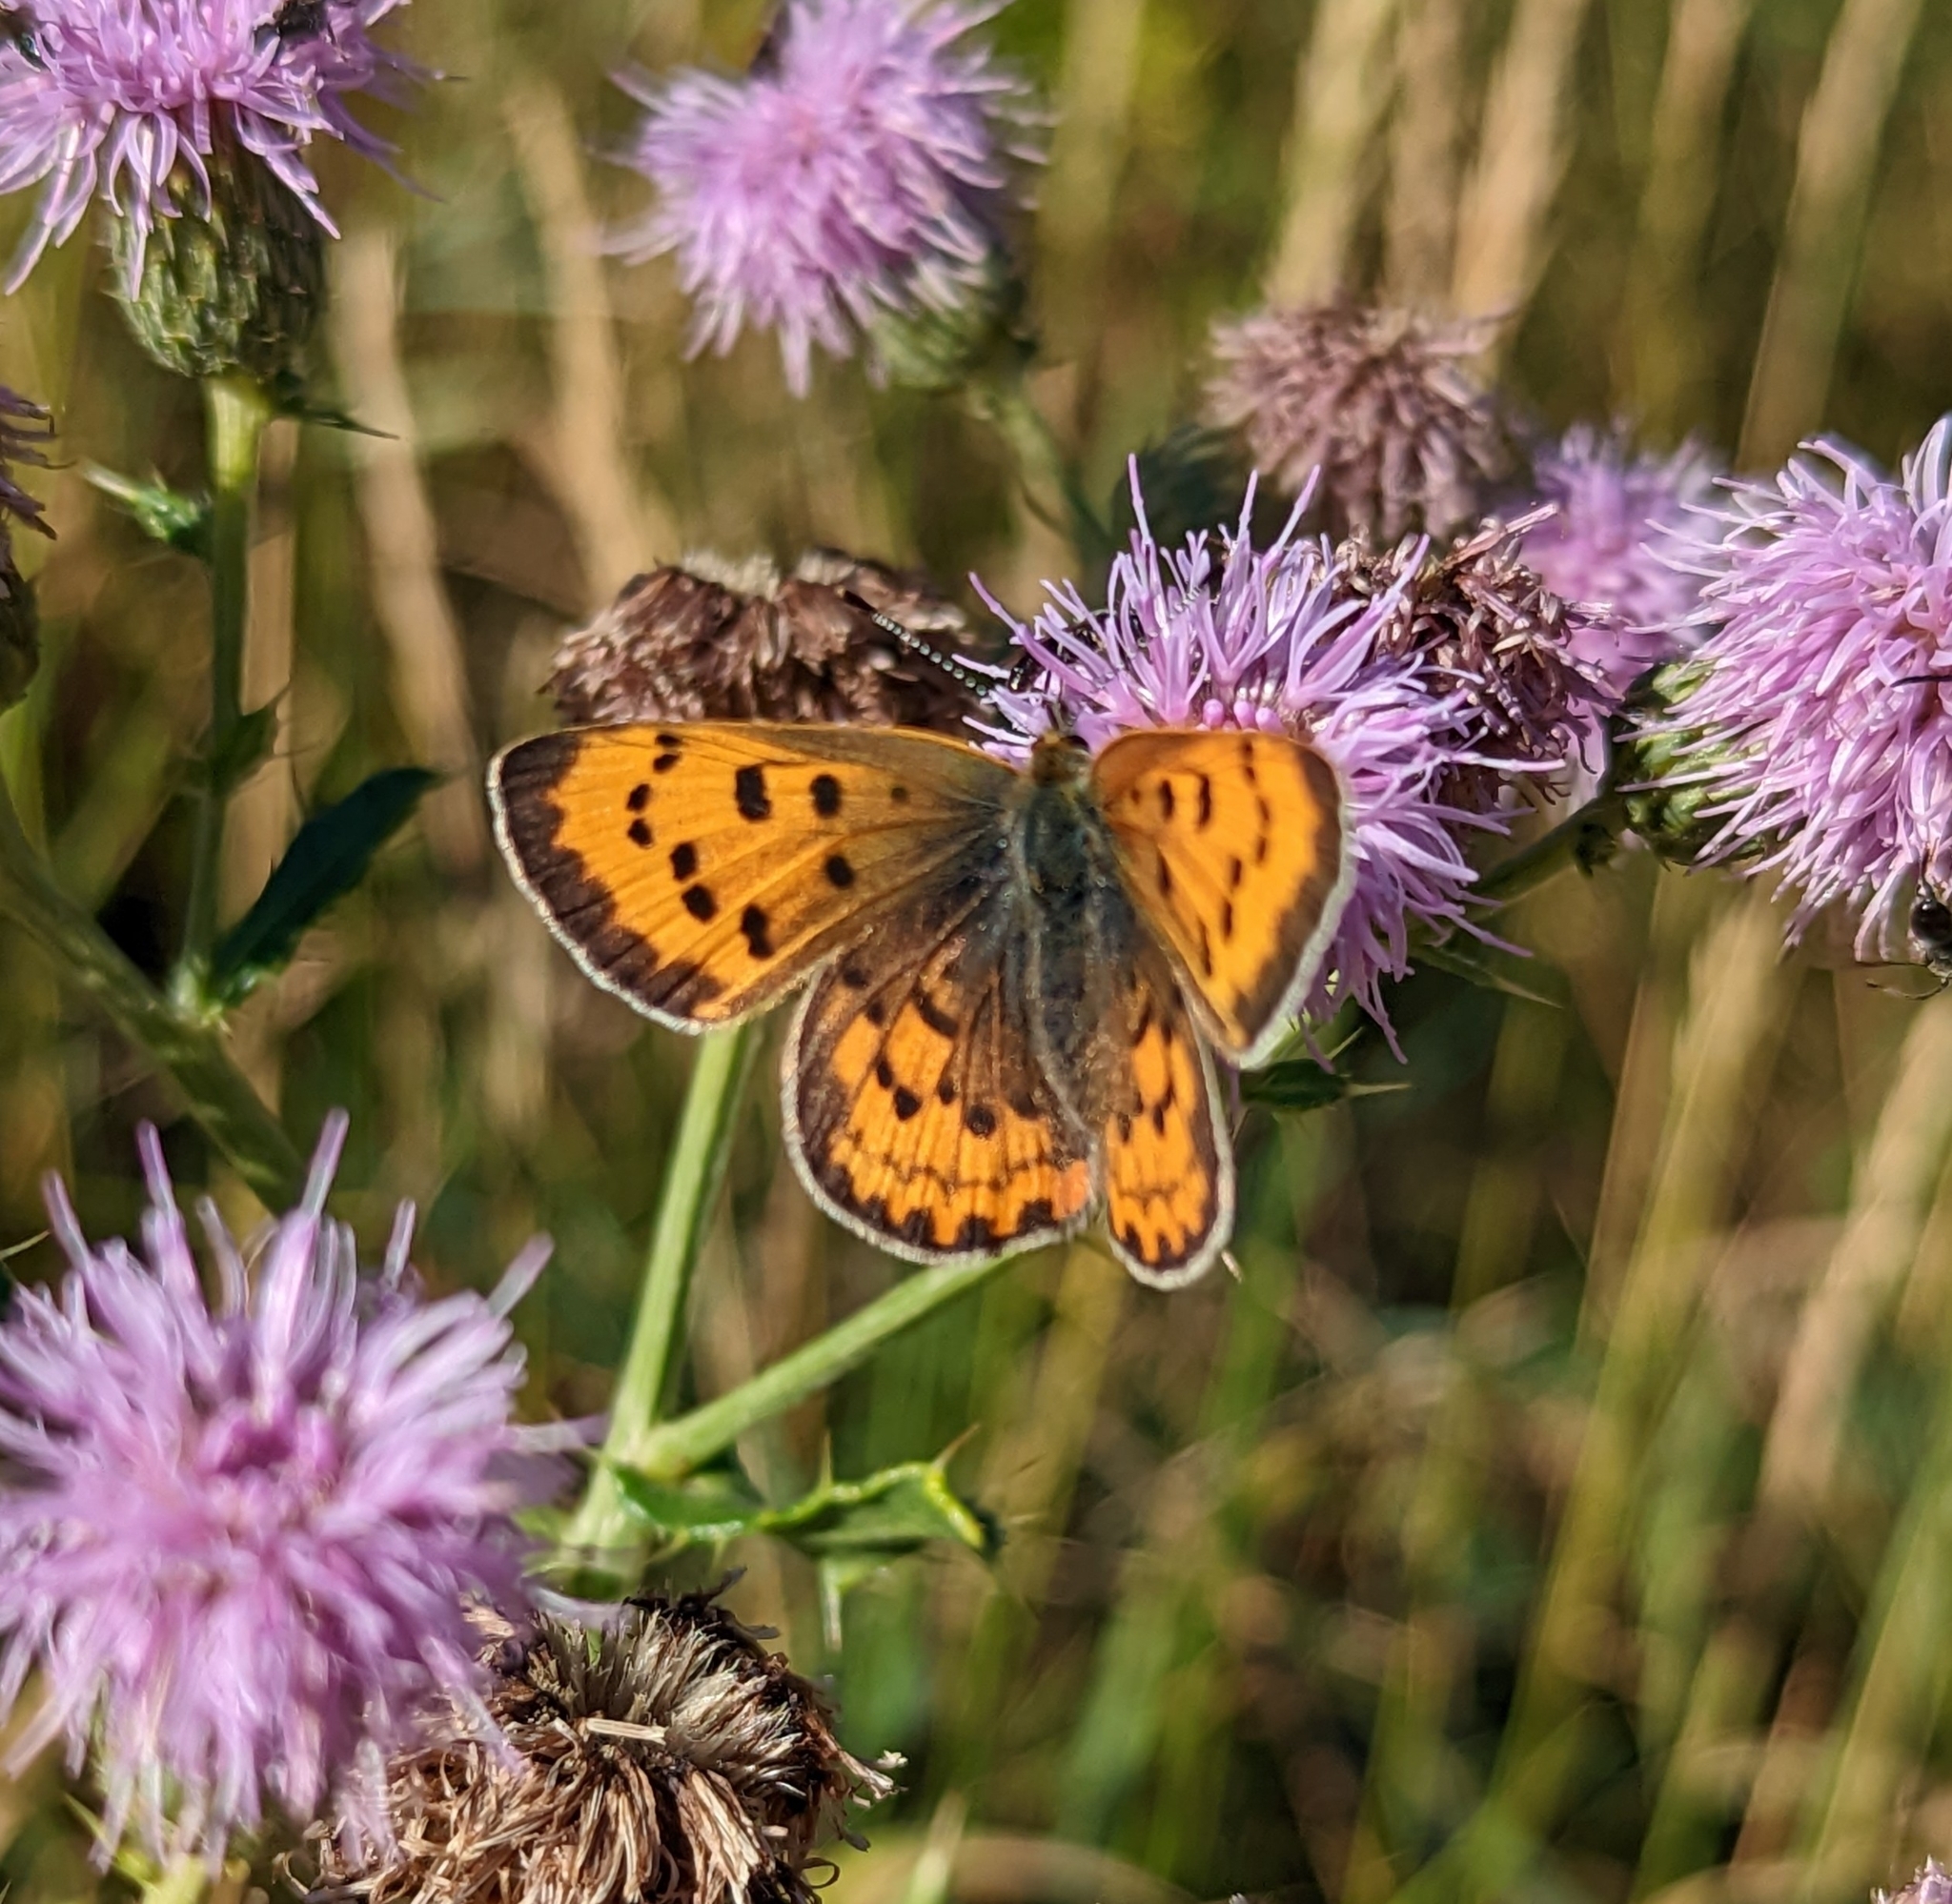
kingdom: Animalia
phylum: Arthropoda
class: Insecta
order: Lepidoptera
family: Lycaenidae
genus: Tharsalea
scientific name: Tharsalea helloides
